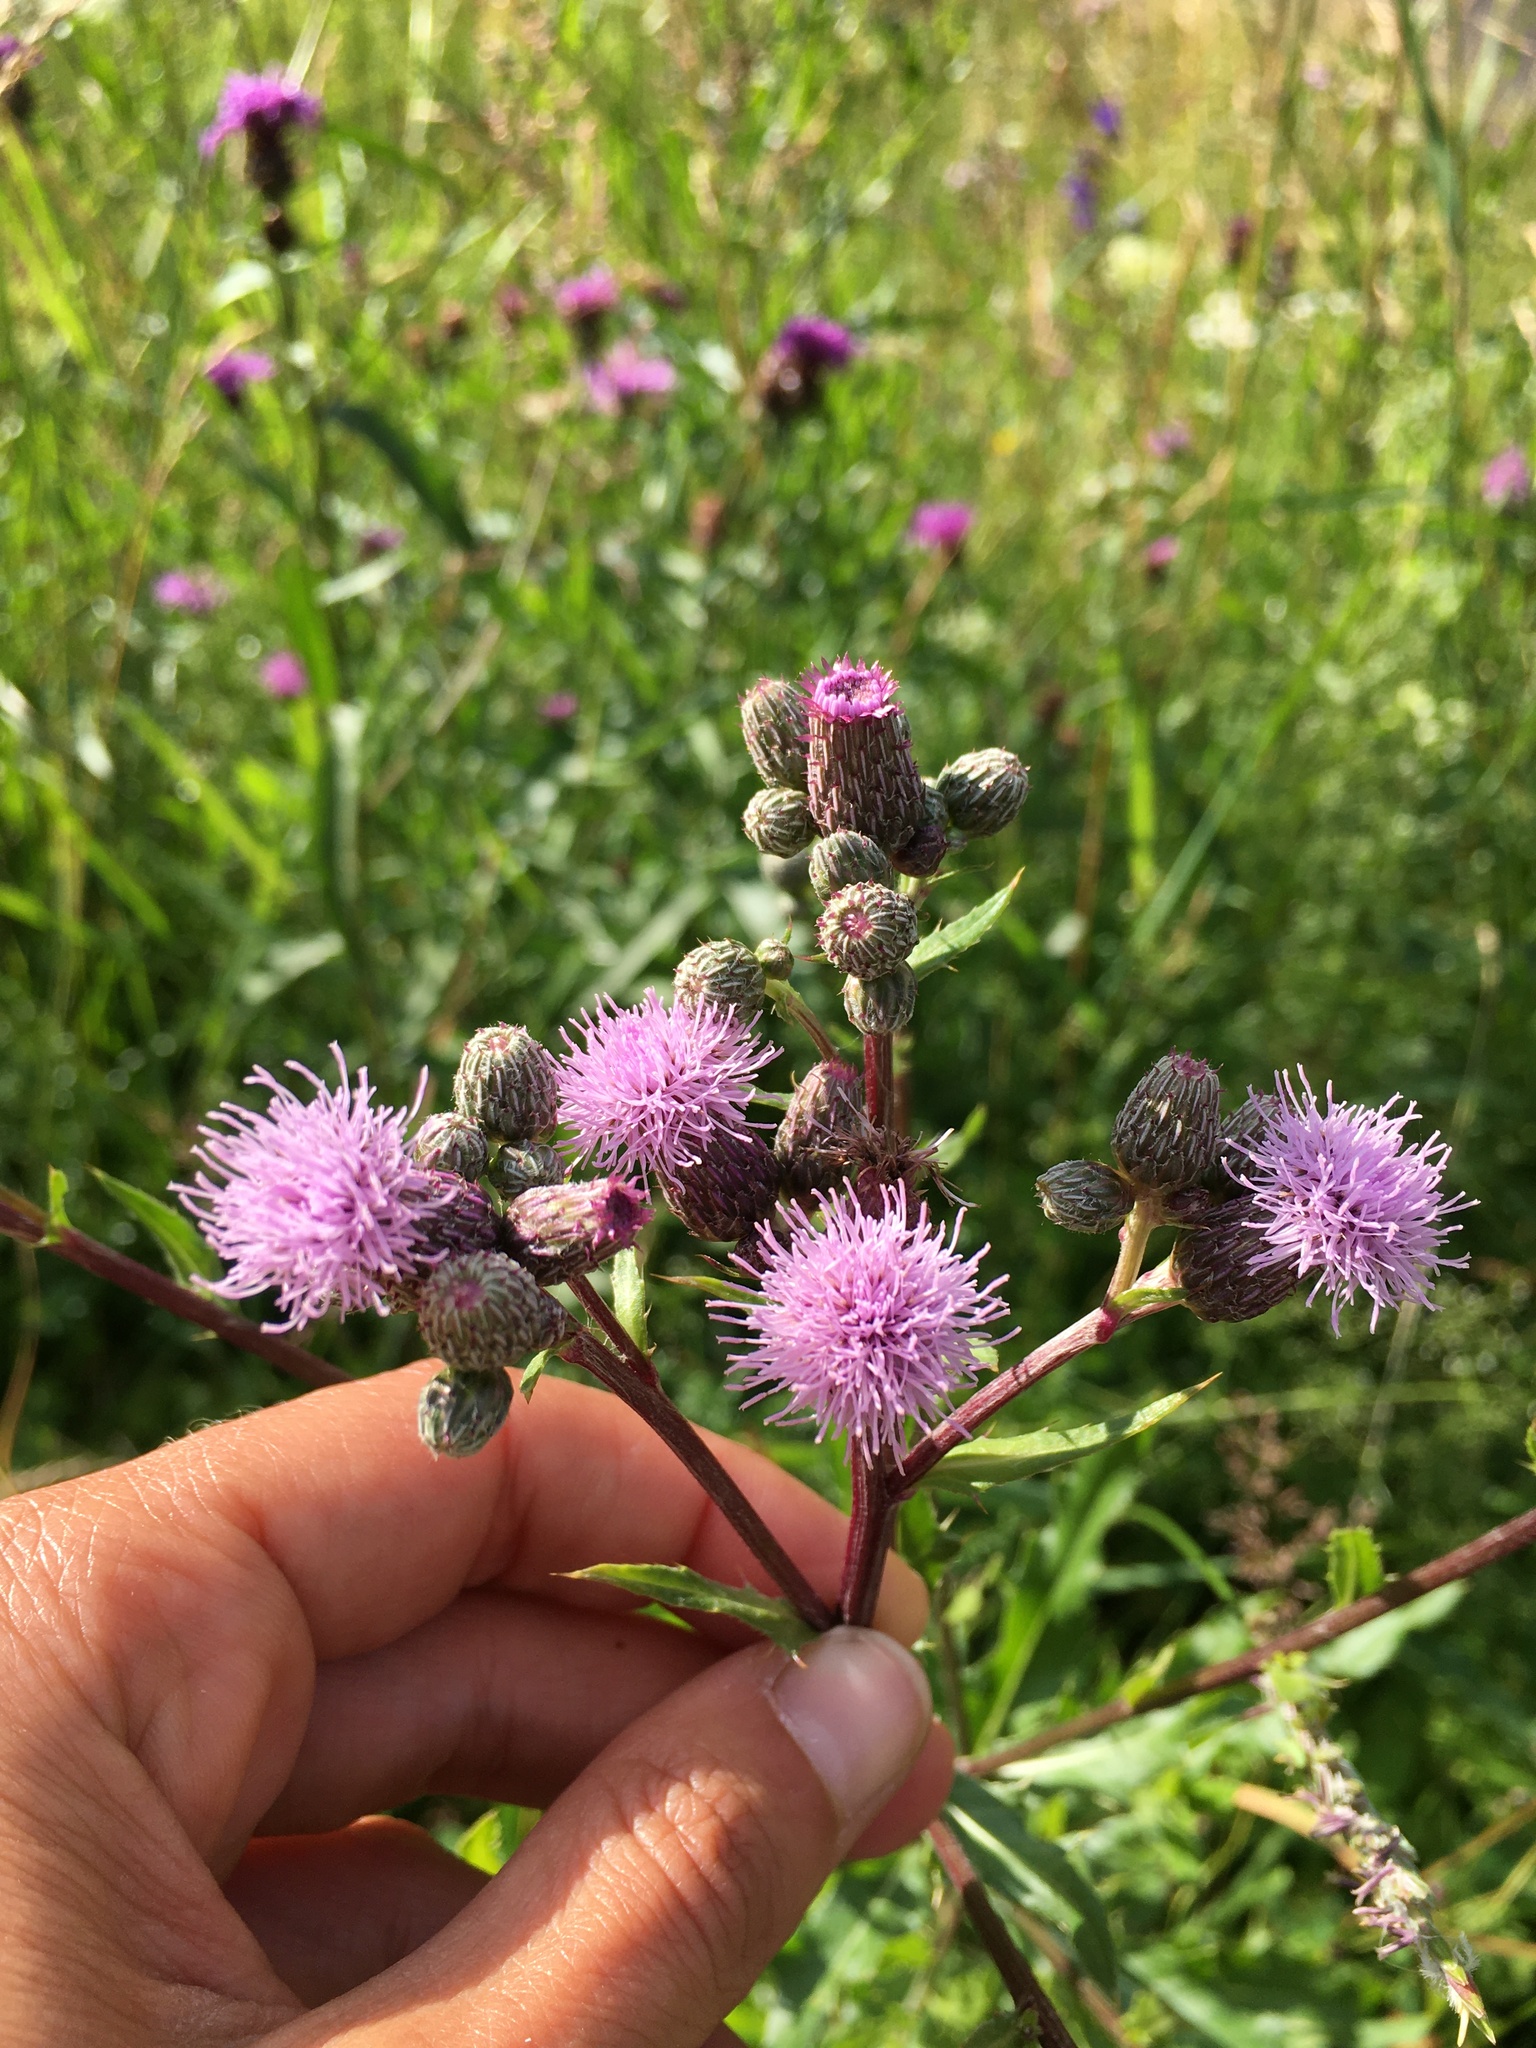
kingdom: Plantae
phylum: Tracheophyta
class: Magnoliopsida
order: Asterales
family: Asteraceae
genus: Cirsium
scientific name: Cirsium arvense
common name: Creeping thistle
